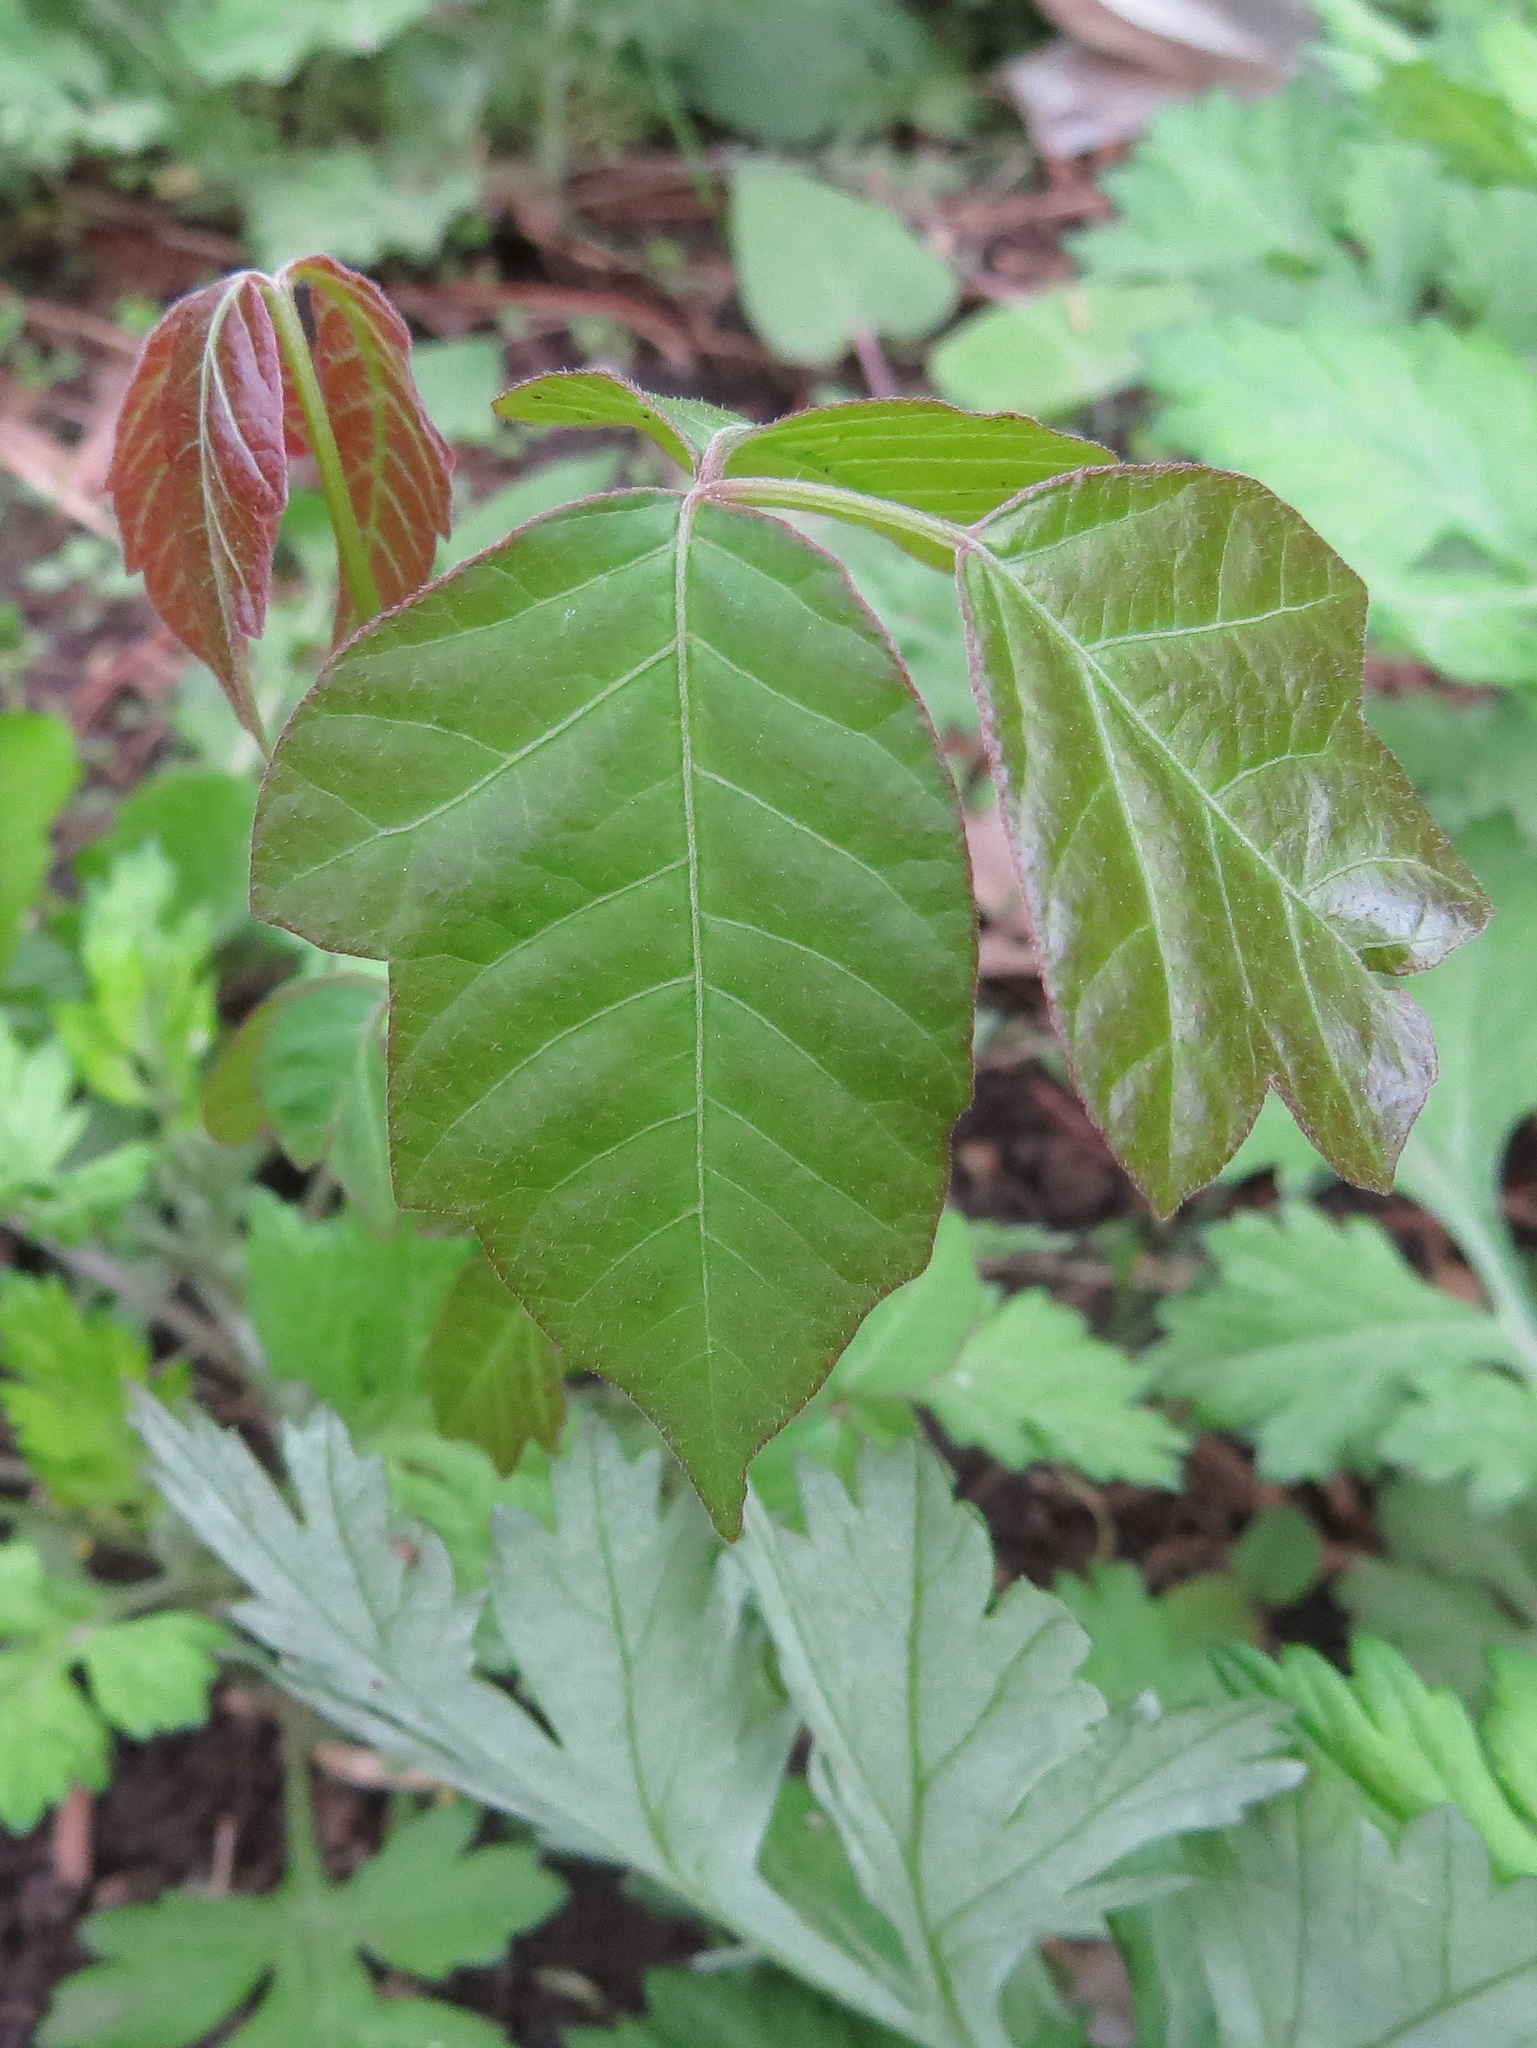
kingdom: Plantae
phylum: Tracheophyta
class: Magnoliopsida
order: Sapindales
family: Anacardiaceae
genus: Toxicodendron
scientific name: Toxicodendron radicans
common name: Poison ivy
